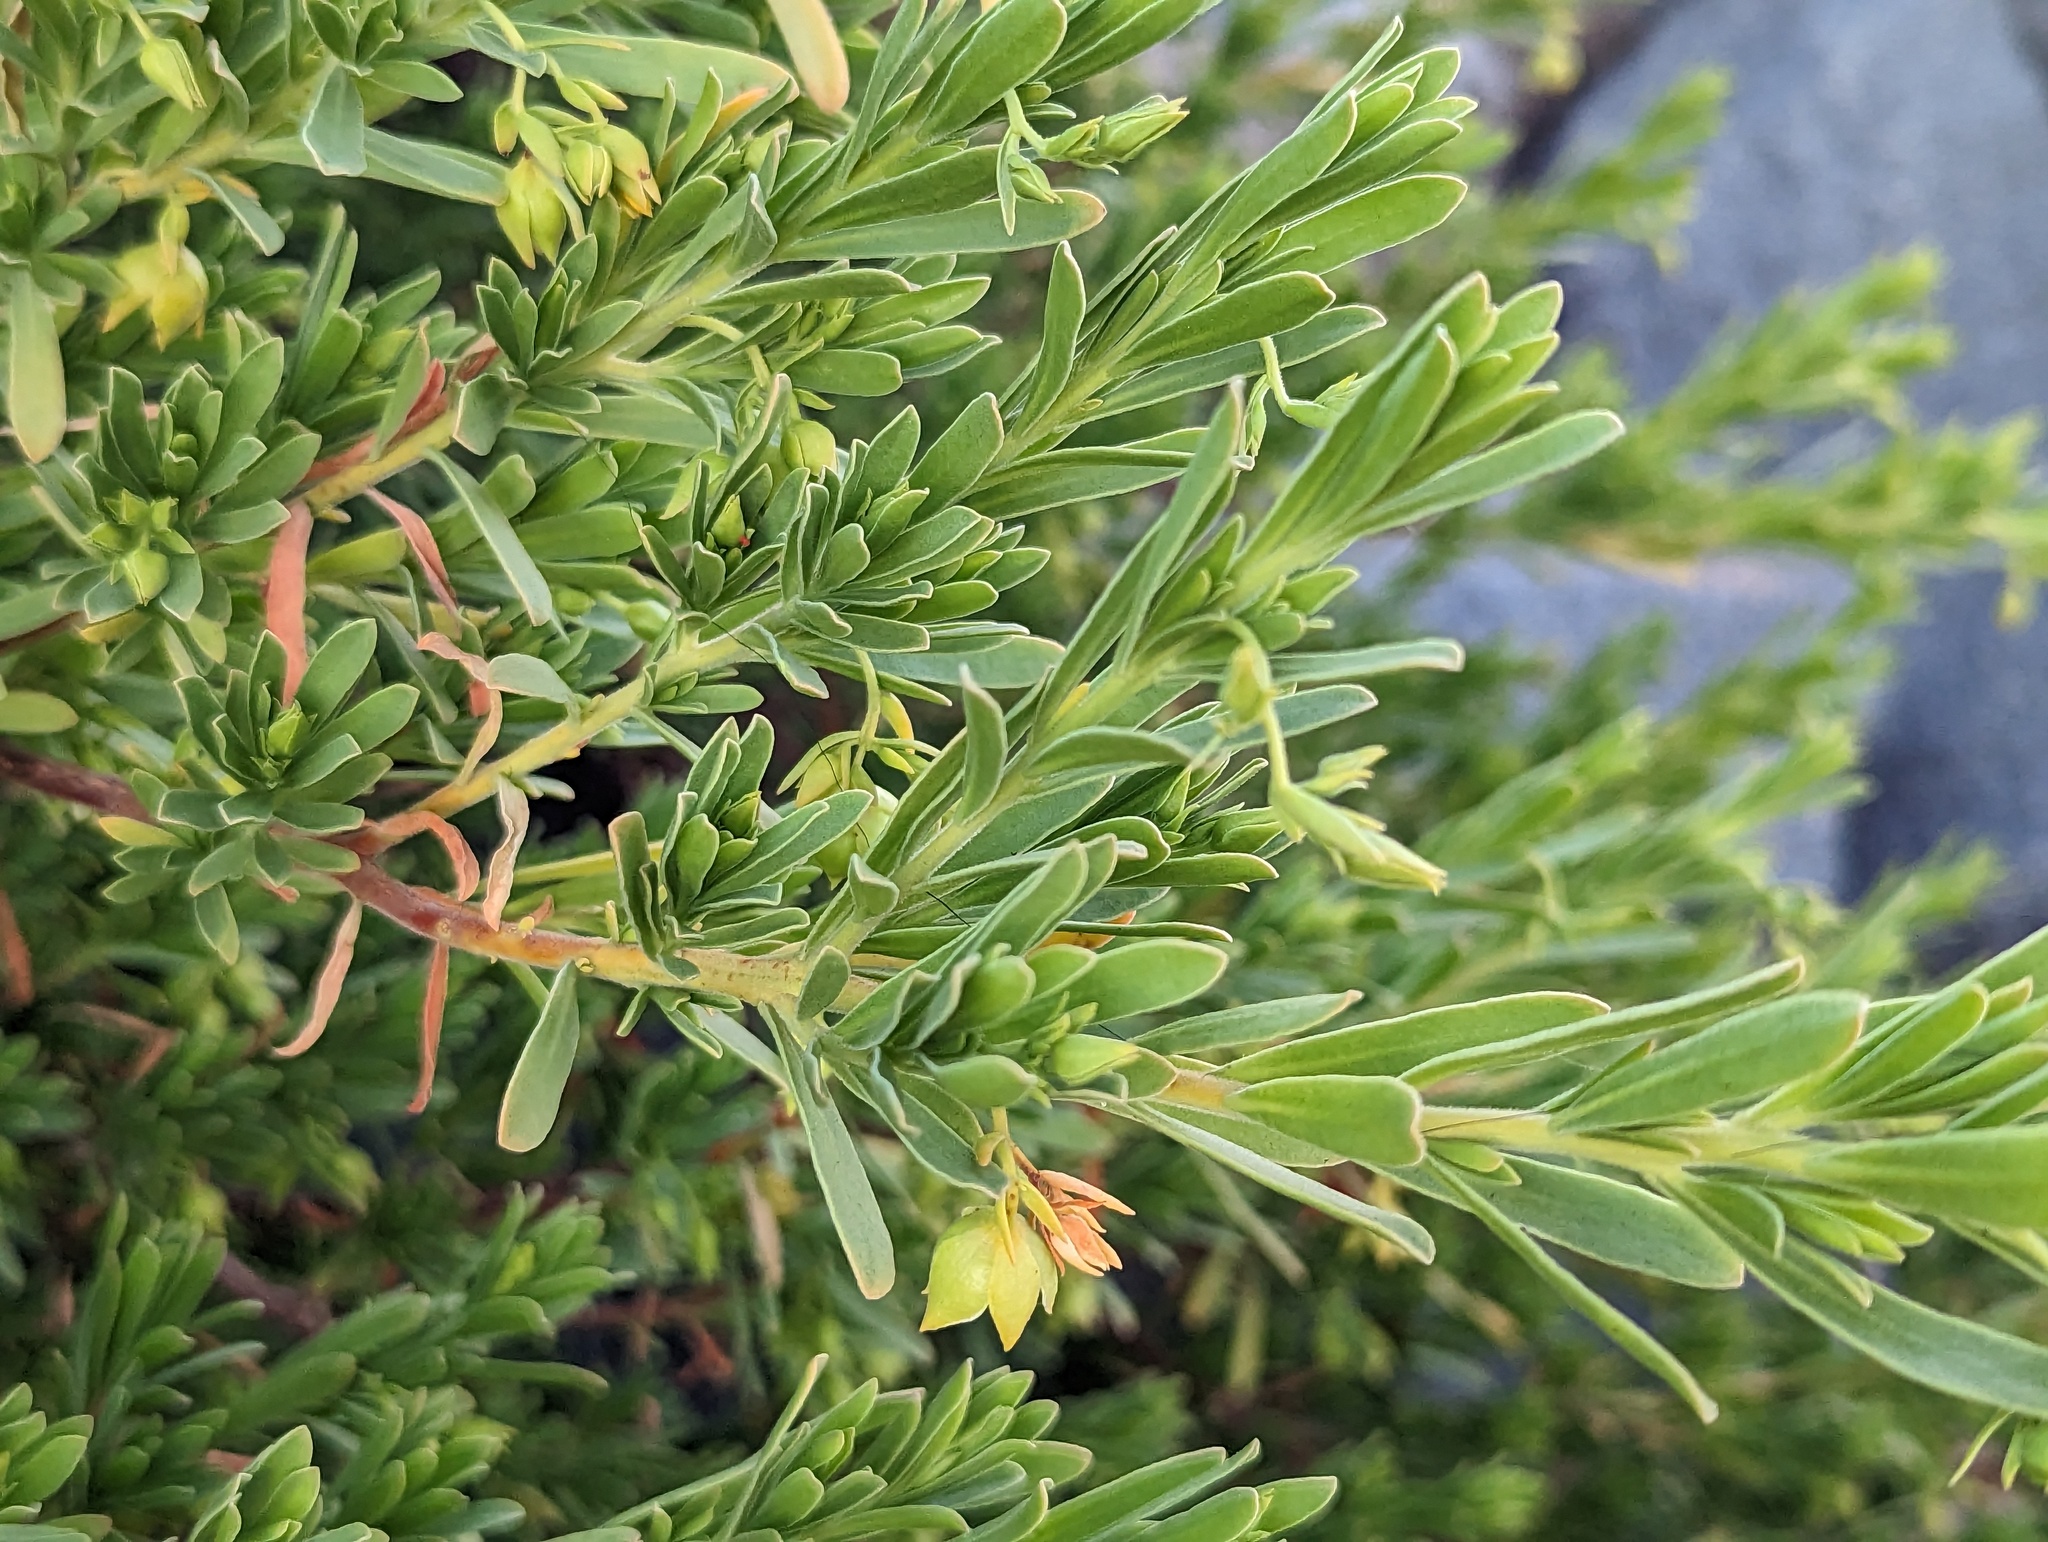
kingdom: Plantae
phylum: Tracheophyta
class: Magnoliopsida
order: Fabales
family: Surianaceae
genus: Suriana
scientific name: Suriana maritima
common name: Bay-cedar
